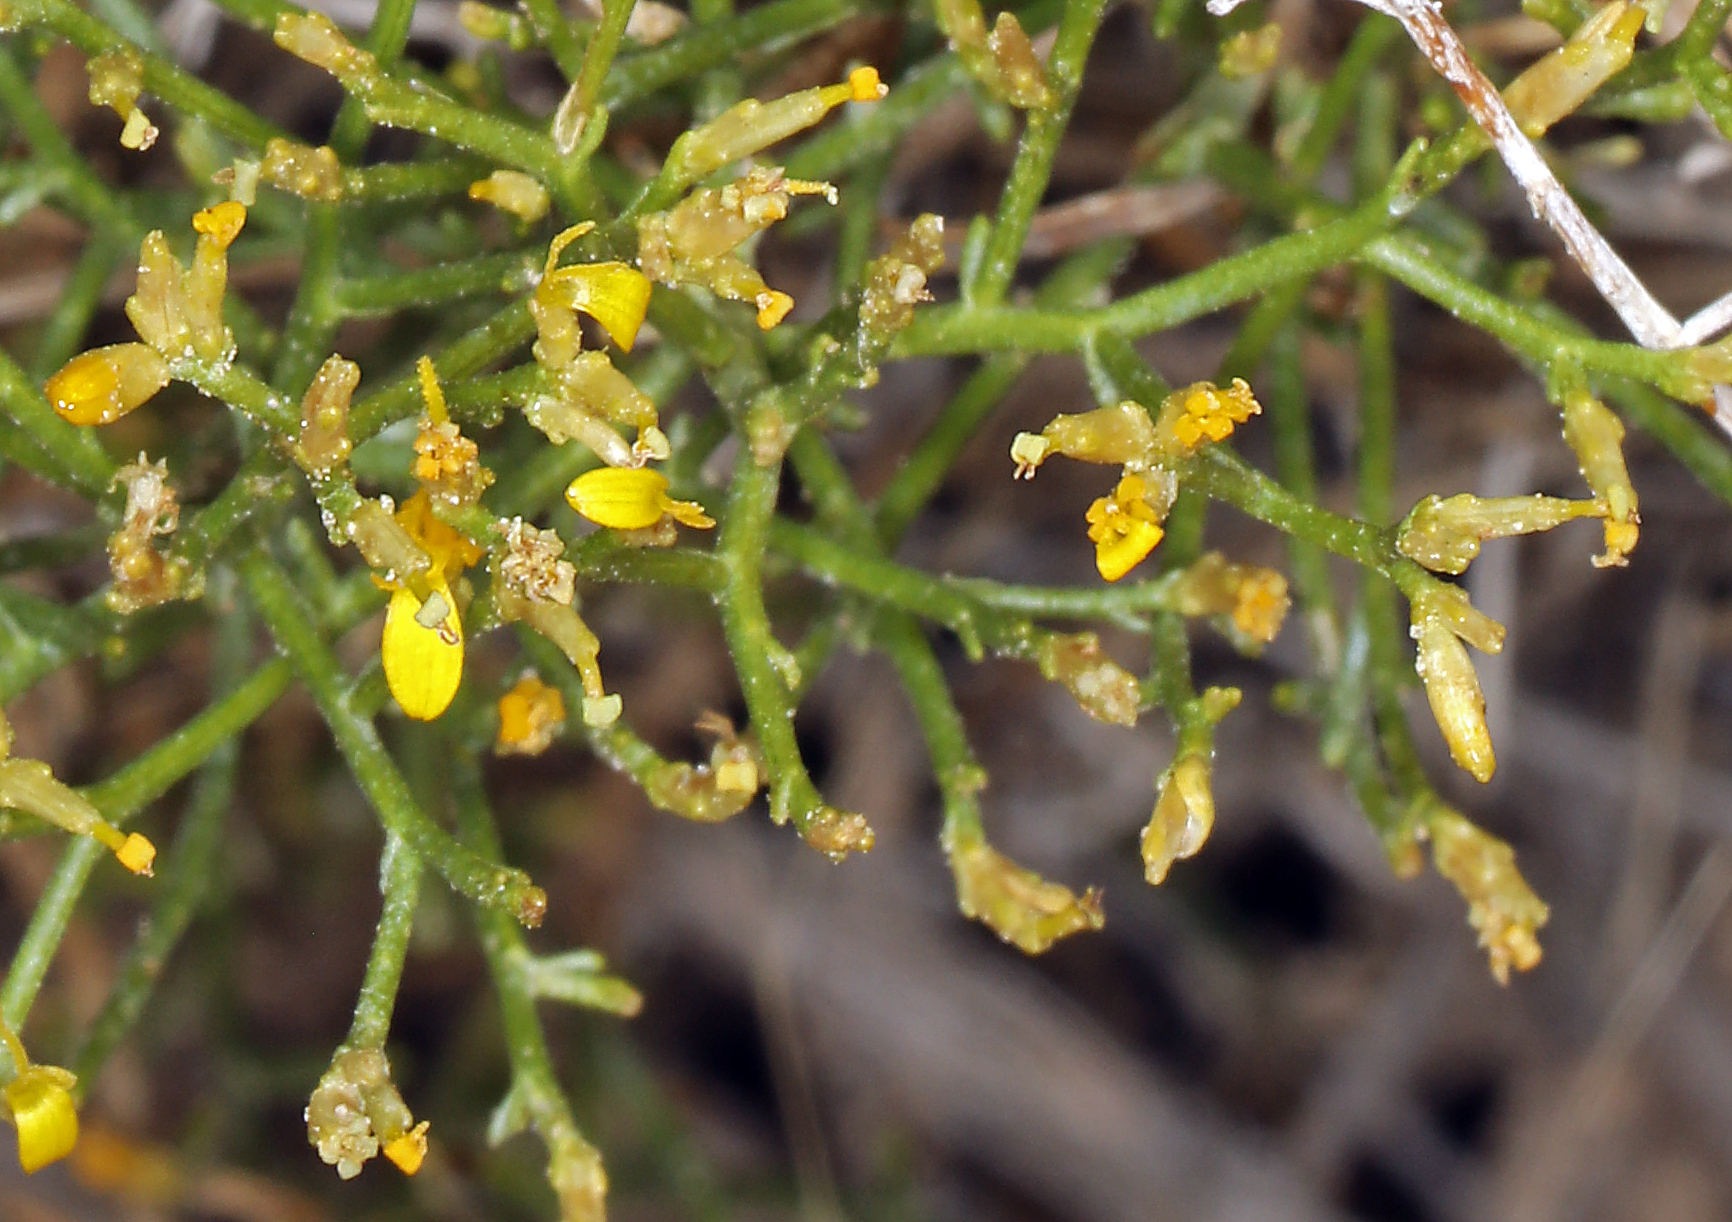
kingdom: Plantae
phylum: Tracheophyta
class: Magnoliopsida
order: Asterales
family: Asteraceae
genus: Gutierrezia
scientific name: Gutierrezia microcephala
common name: Thread snakeweed
